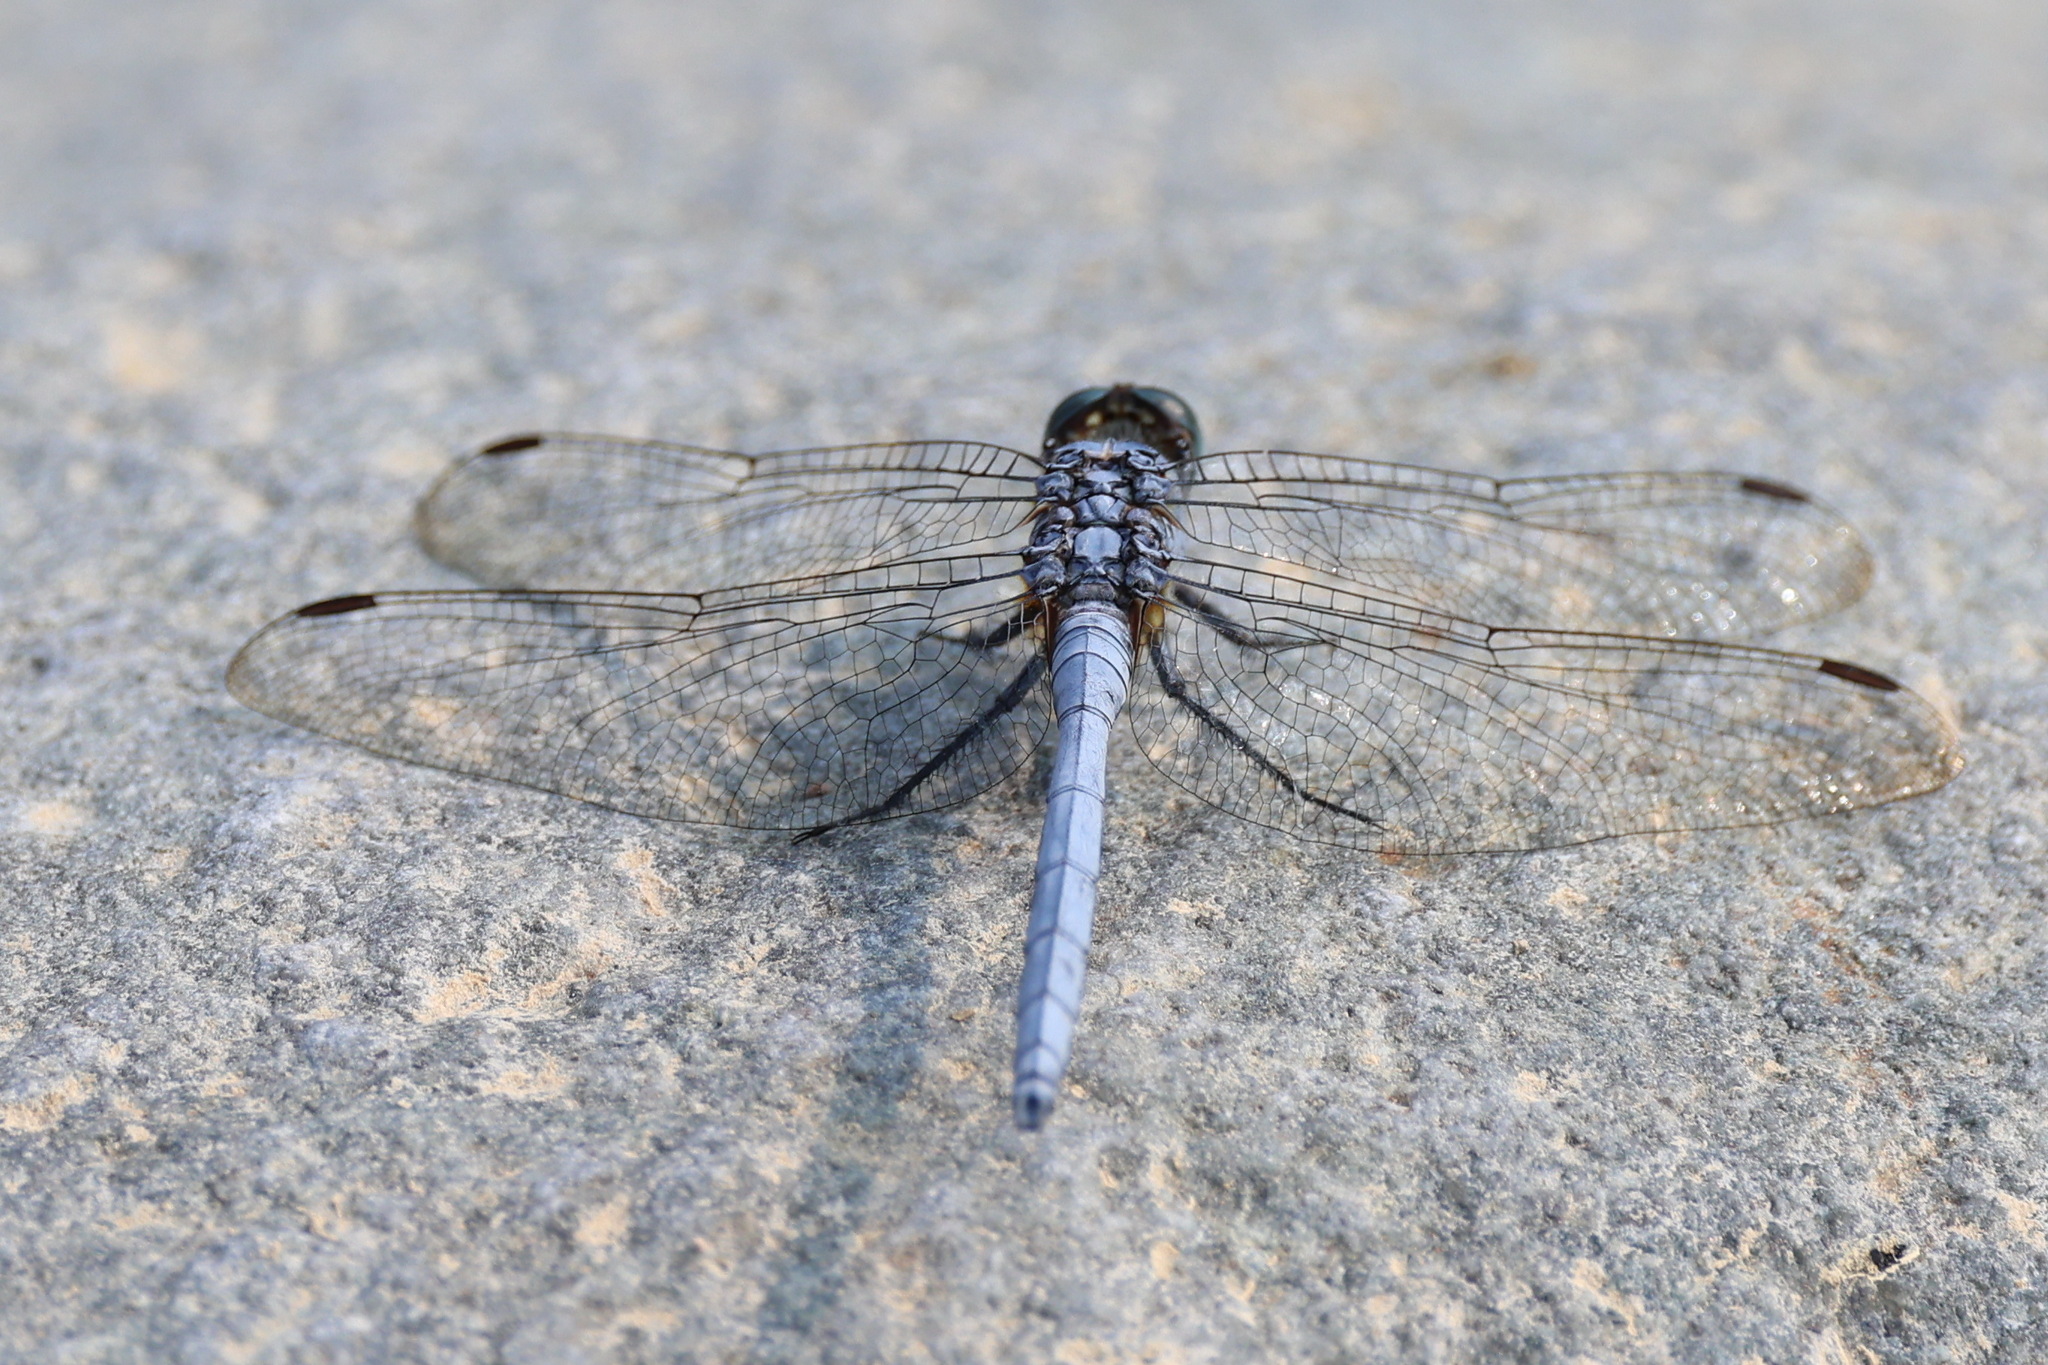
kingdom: Animalia
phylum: Arthropoda
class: Insecta
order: Odonata
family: Libellulidae
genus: Orthetrum
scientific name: Orthetrum chrysostigma
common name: Epaulet skimmer
